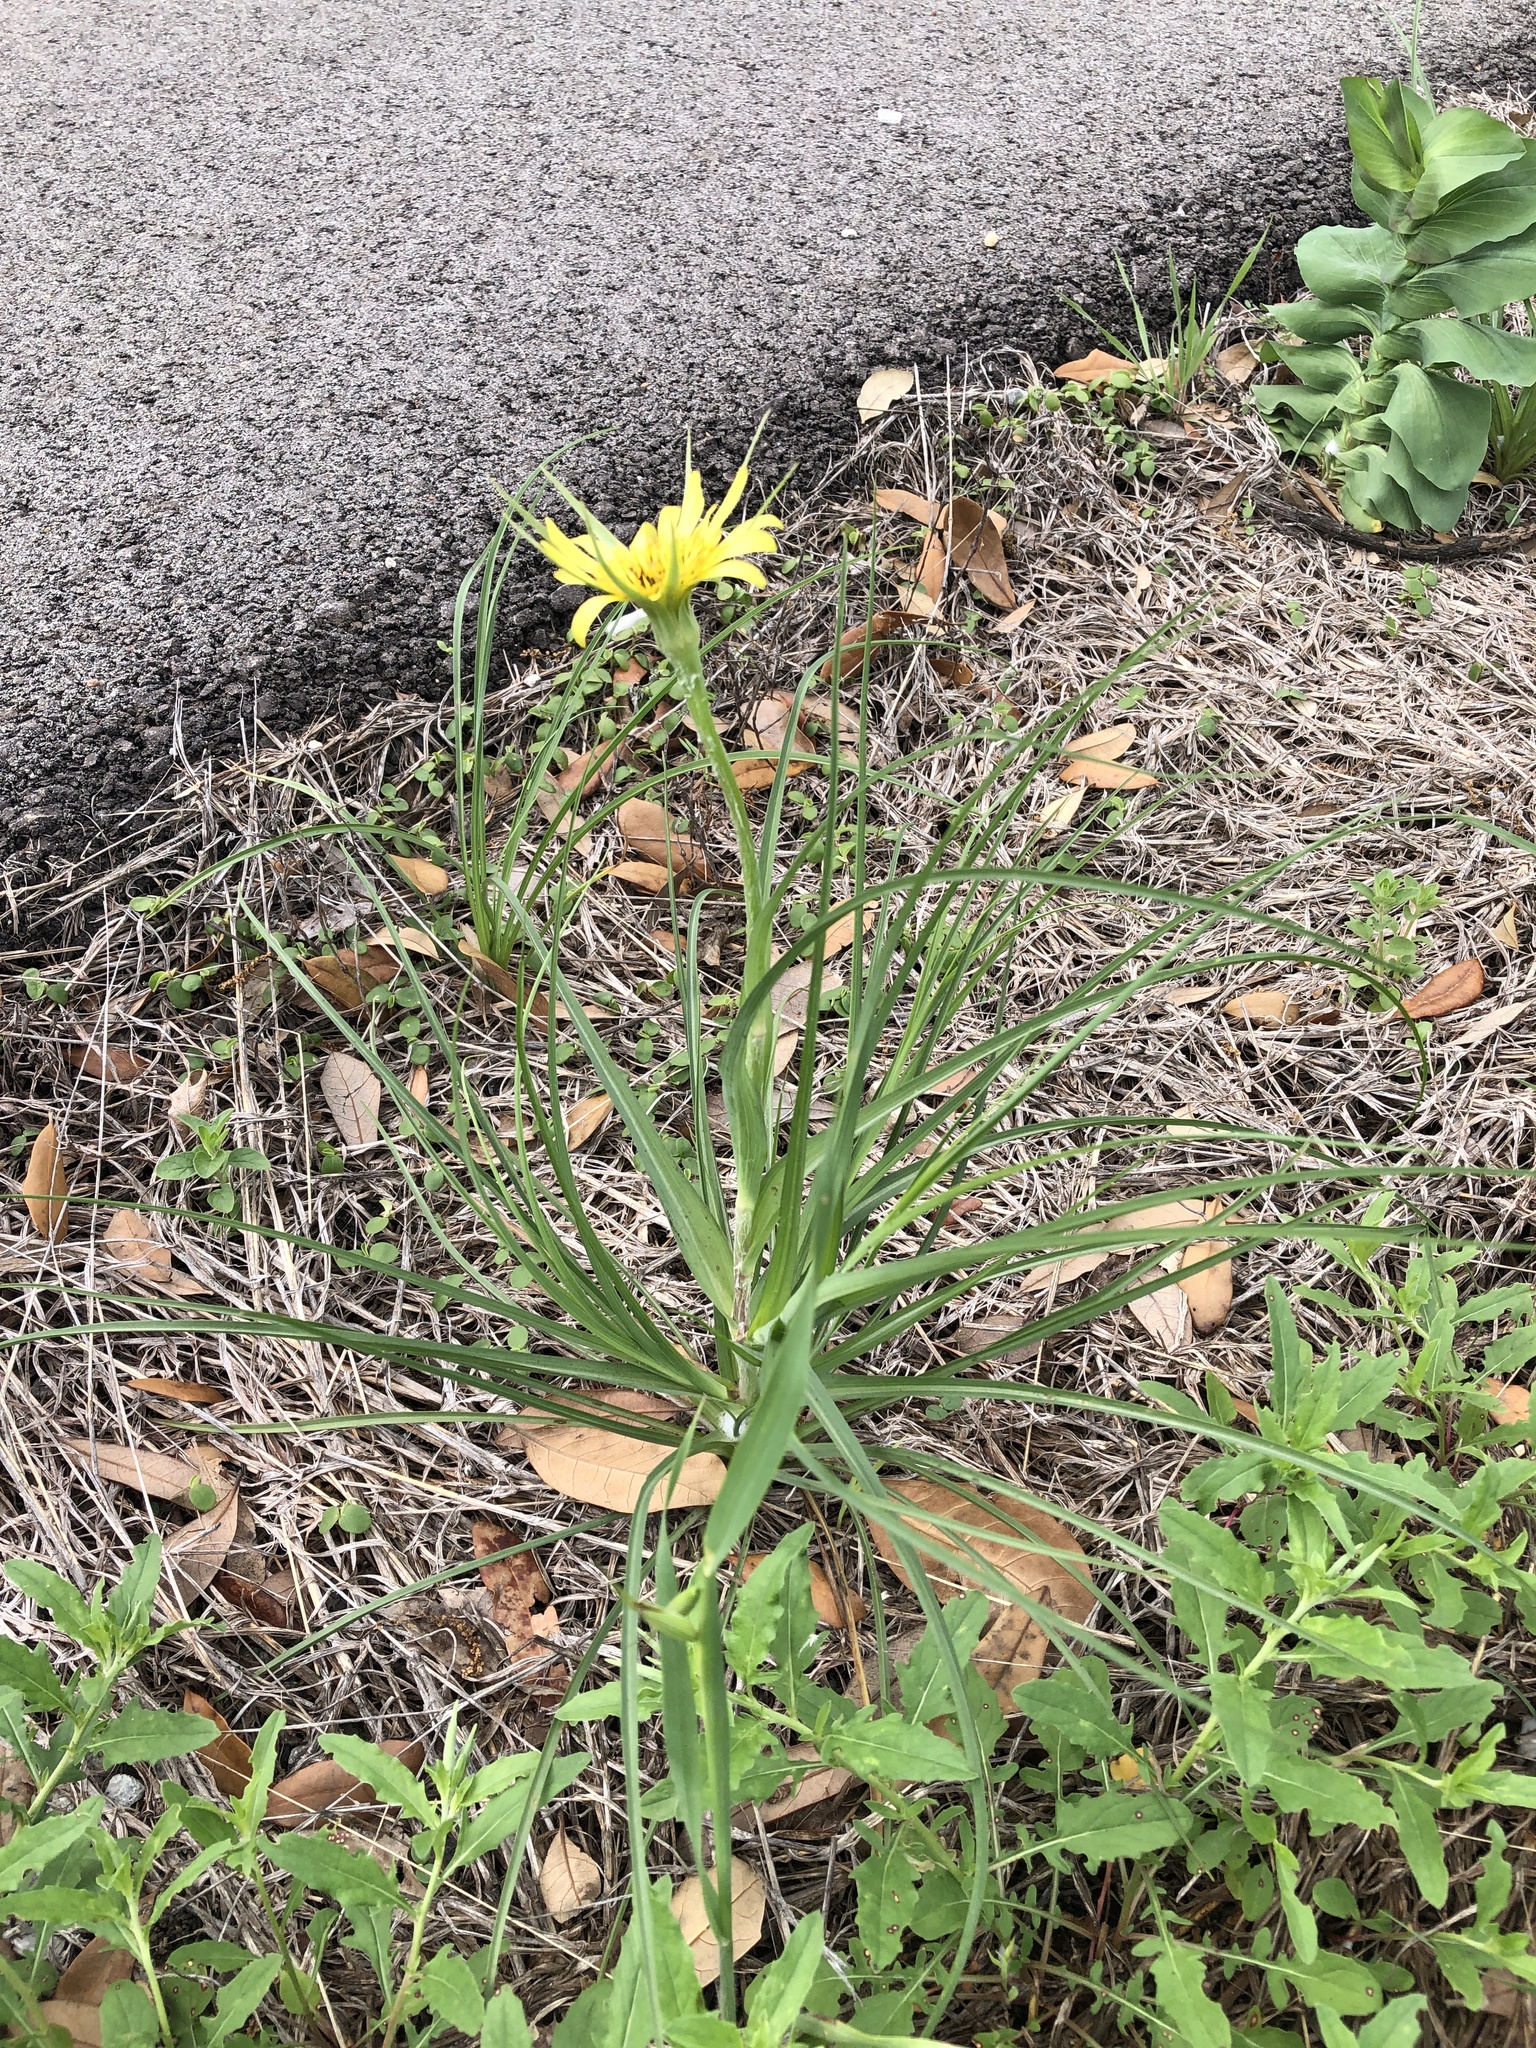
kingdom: Plantae
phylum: Tracheophyta
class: Magnoliopsida
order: Asterales
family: Asteraceae
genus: Tragopogon
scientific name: Tragopogon dubius
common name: Yellow salsify
